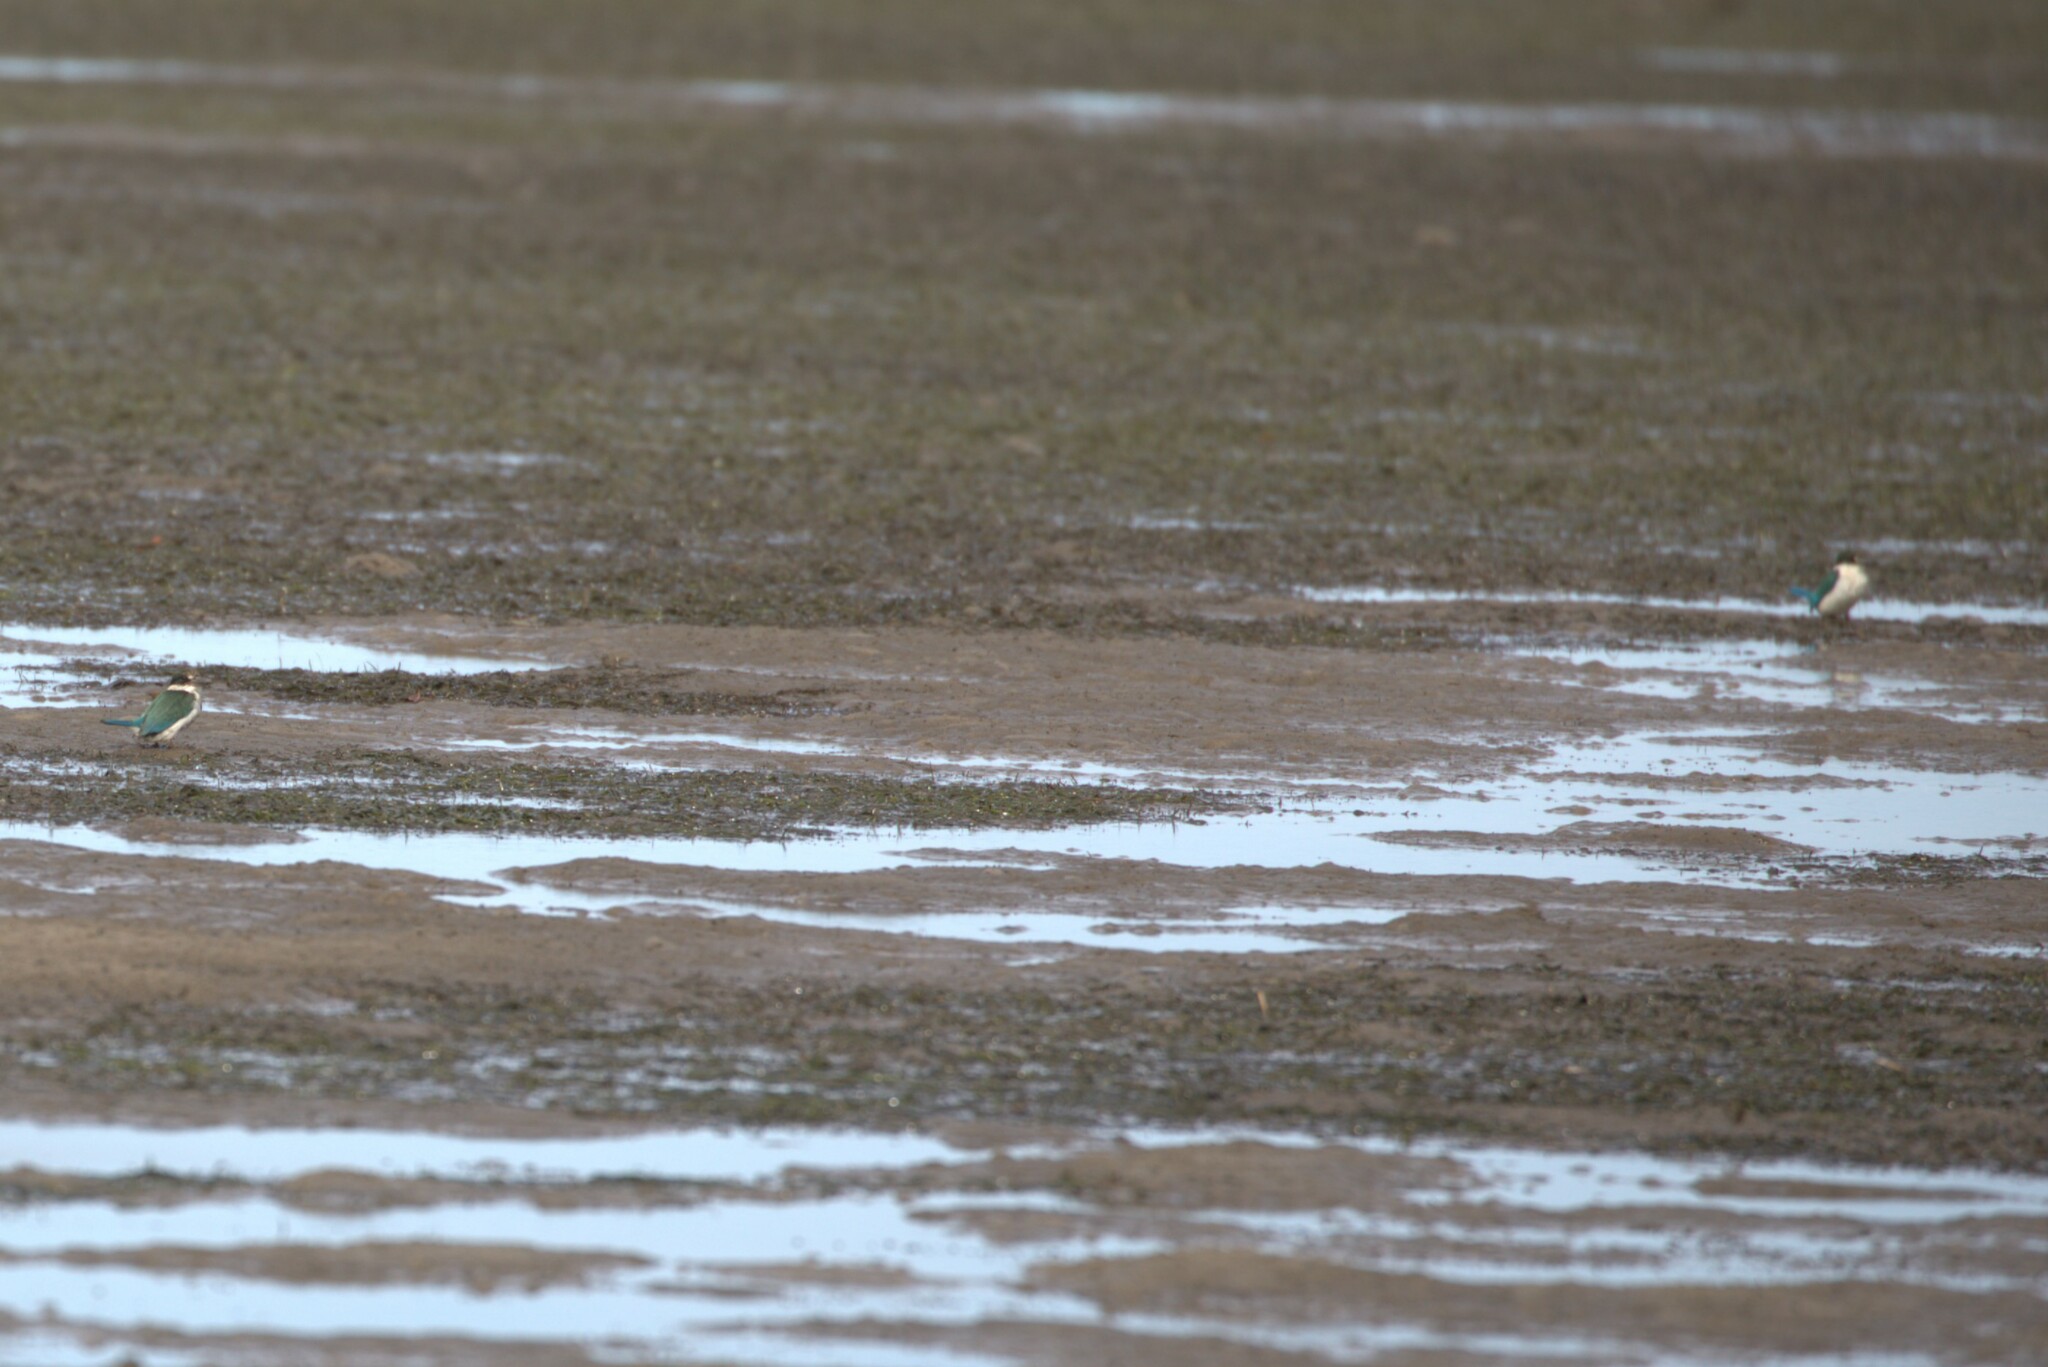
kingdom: Animalia
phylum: Chordata
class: Aves
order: Coraciiformes
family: Alcedinidae
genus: Todiramphus
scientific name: Todiramphus sordidus
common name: Torresian kingfisher
